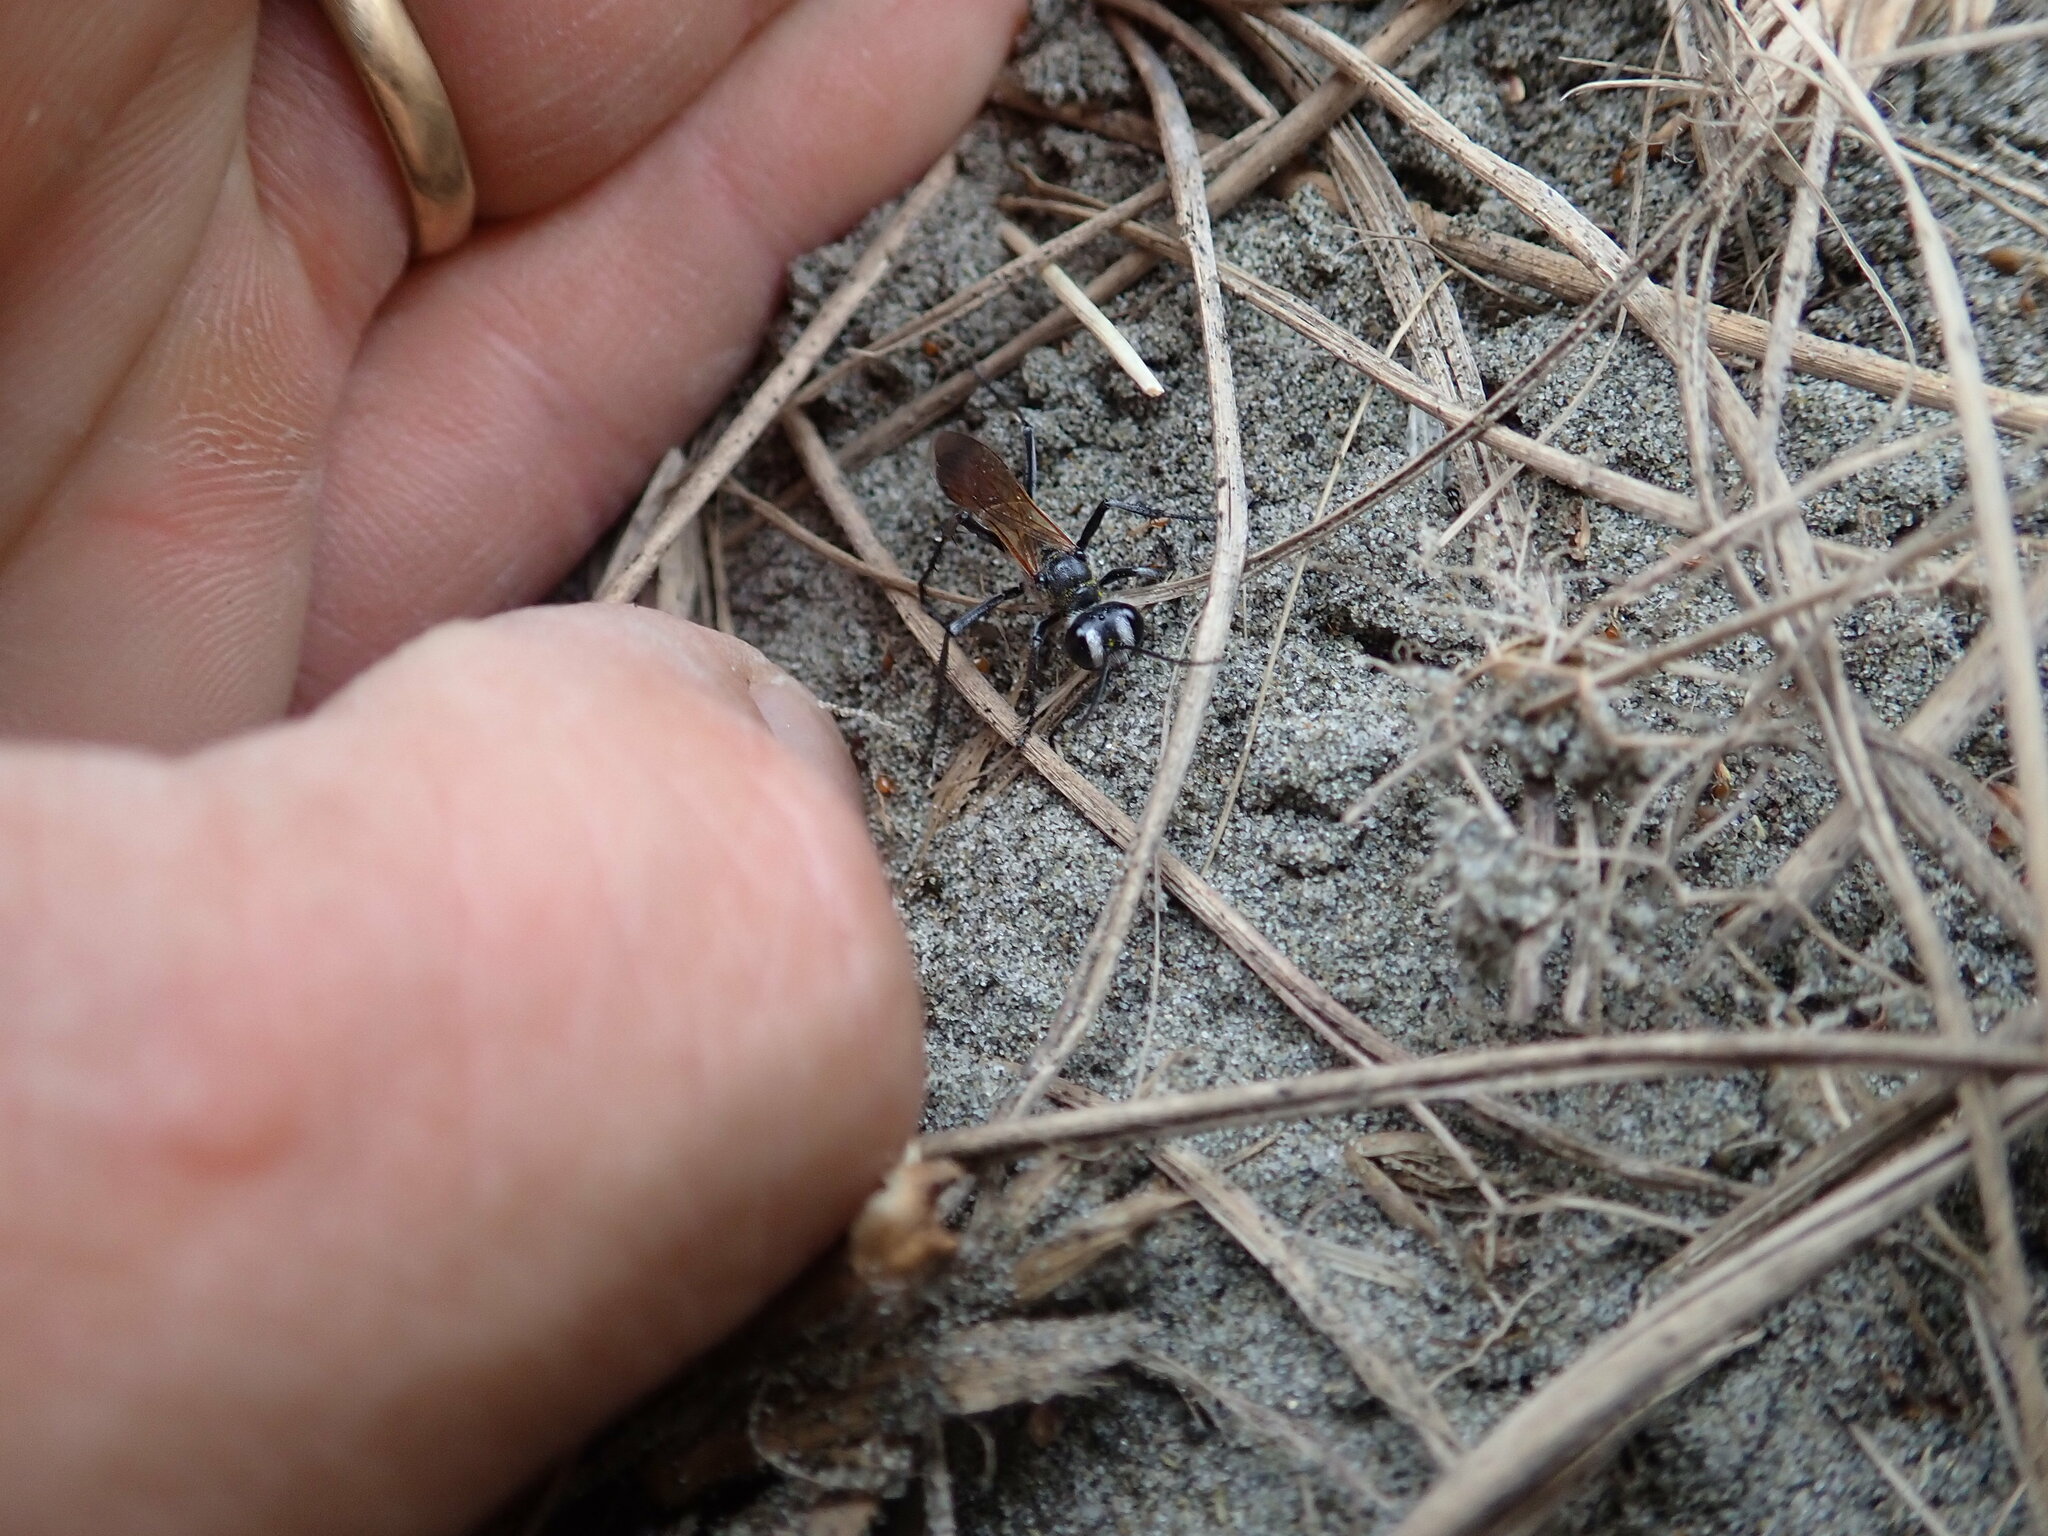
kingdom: Animalia
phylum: Arthropoda
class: Insecta
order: Hymenoptera
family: Sphecidae
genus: Podalonia
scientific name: Podalonia tydei
